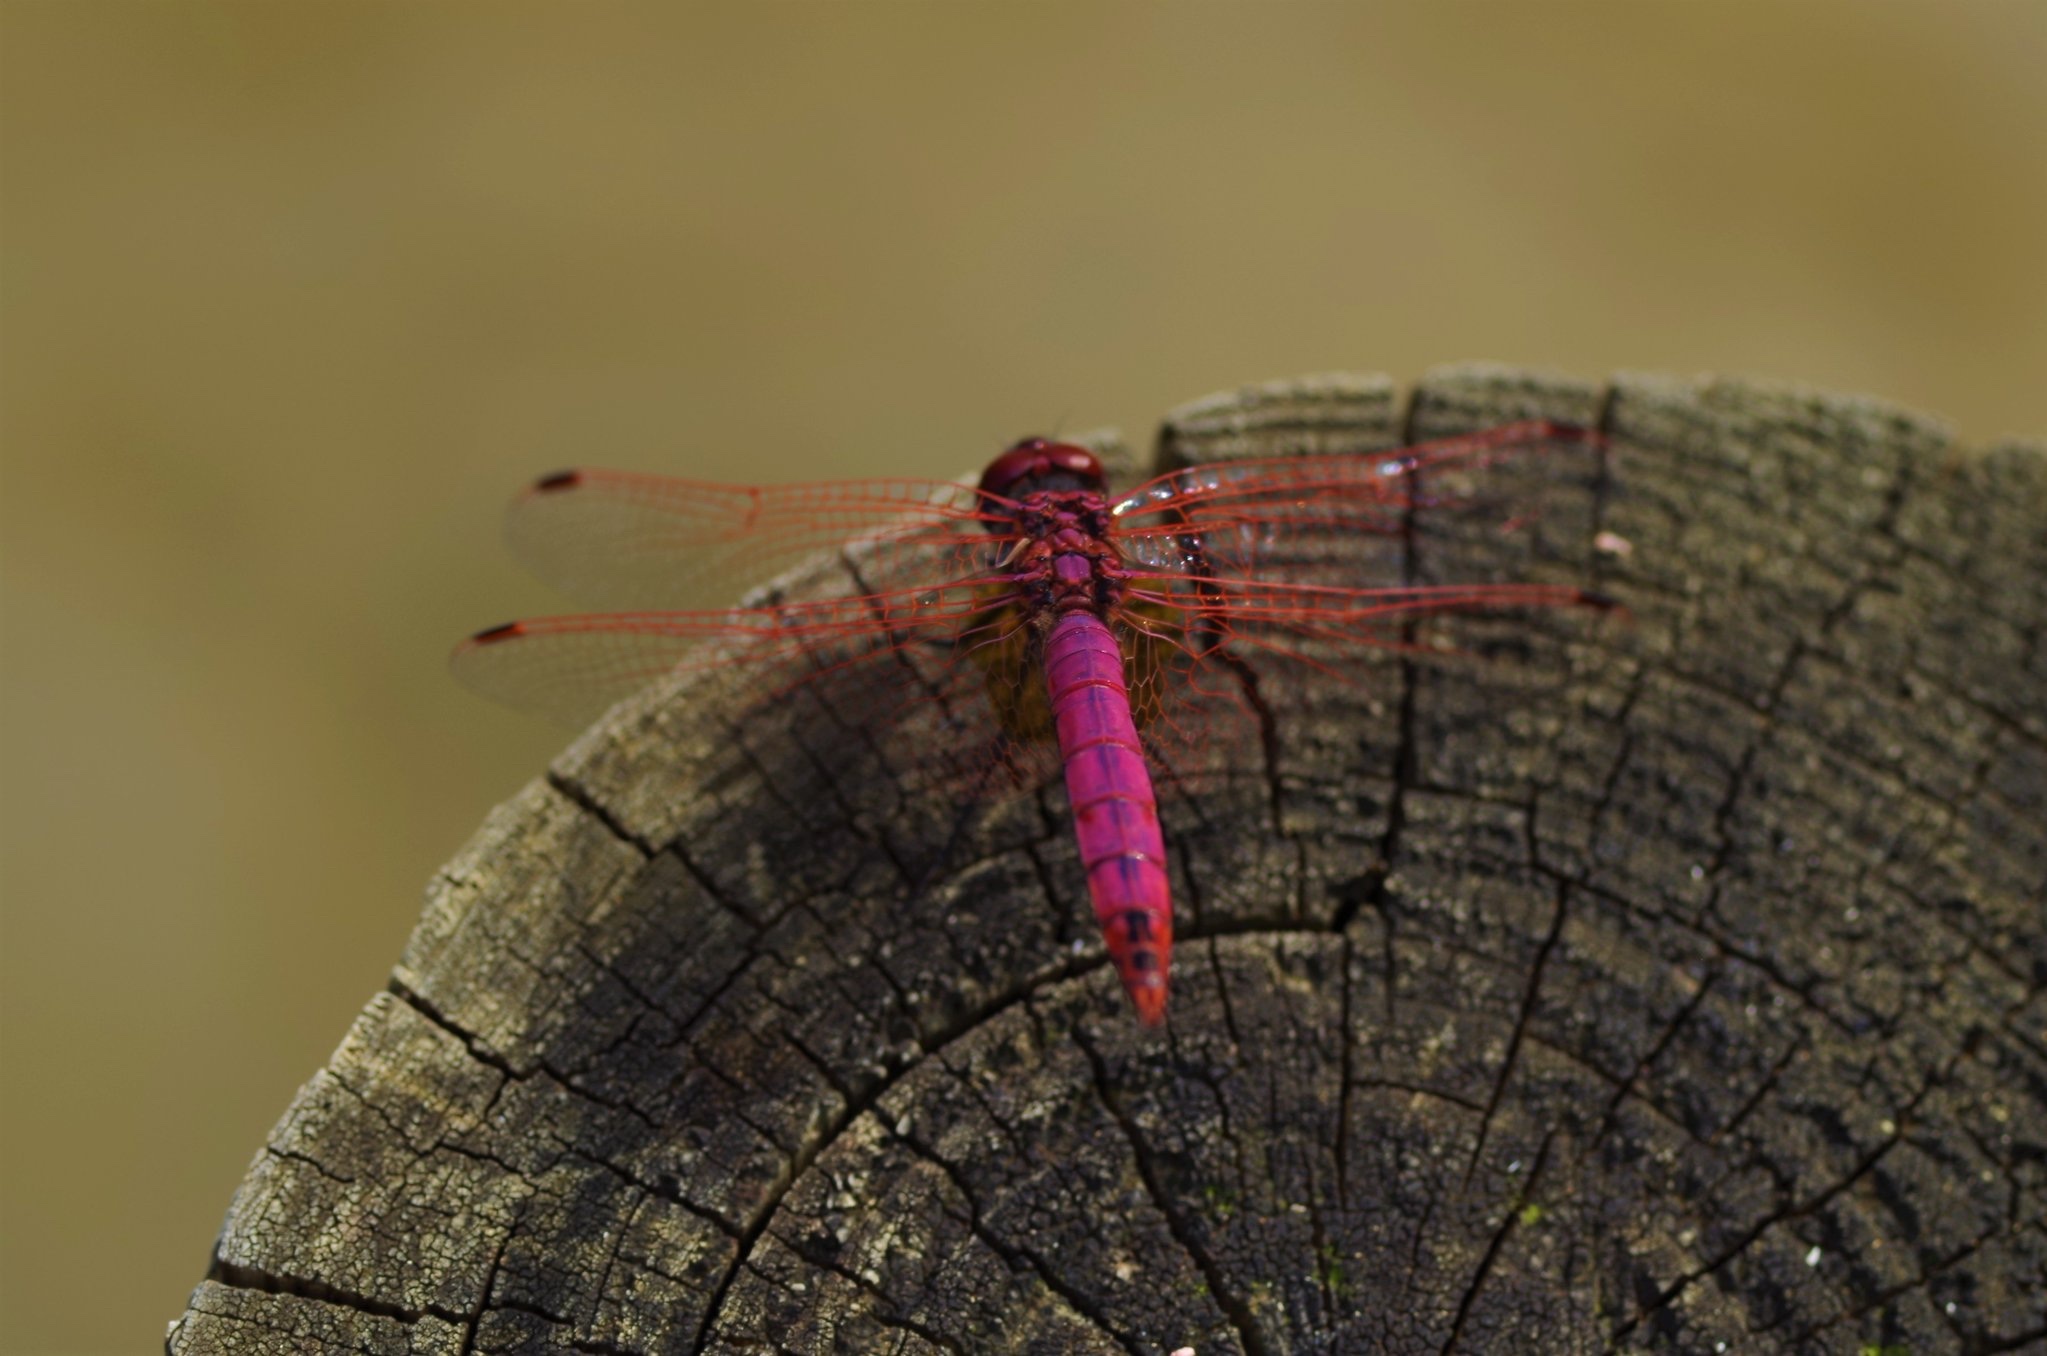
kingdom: Animalia
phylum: Arthropoda
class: Insecta
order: Odonata
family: Libellulidae
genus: Trithemis
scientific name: Trithemis annulata
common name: Violet dropwing
